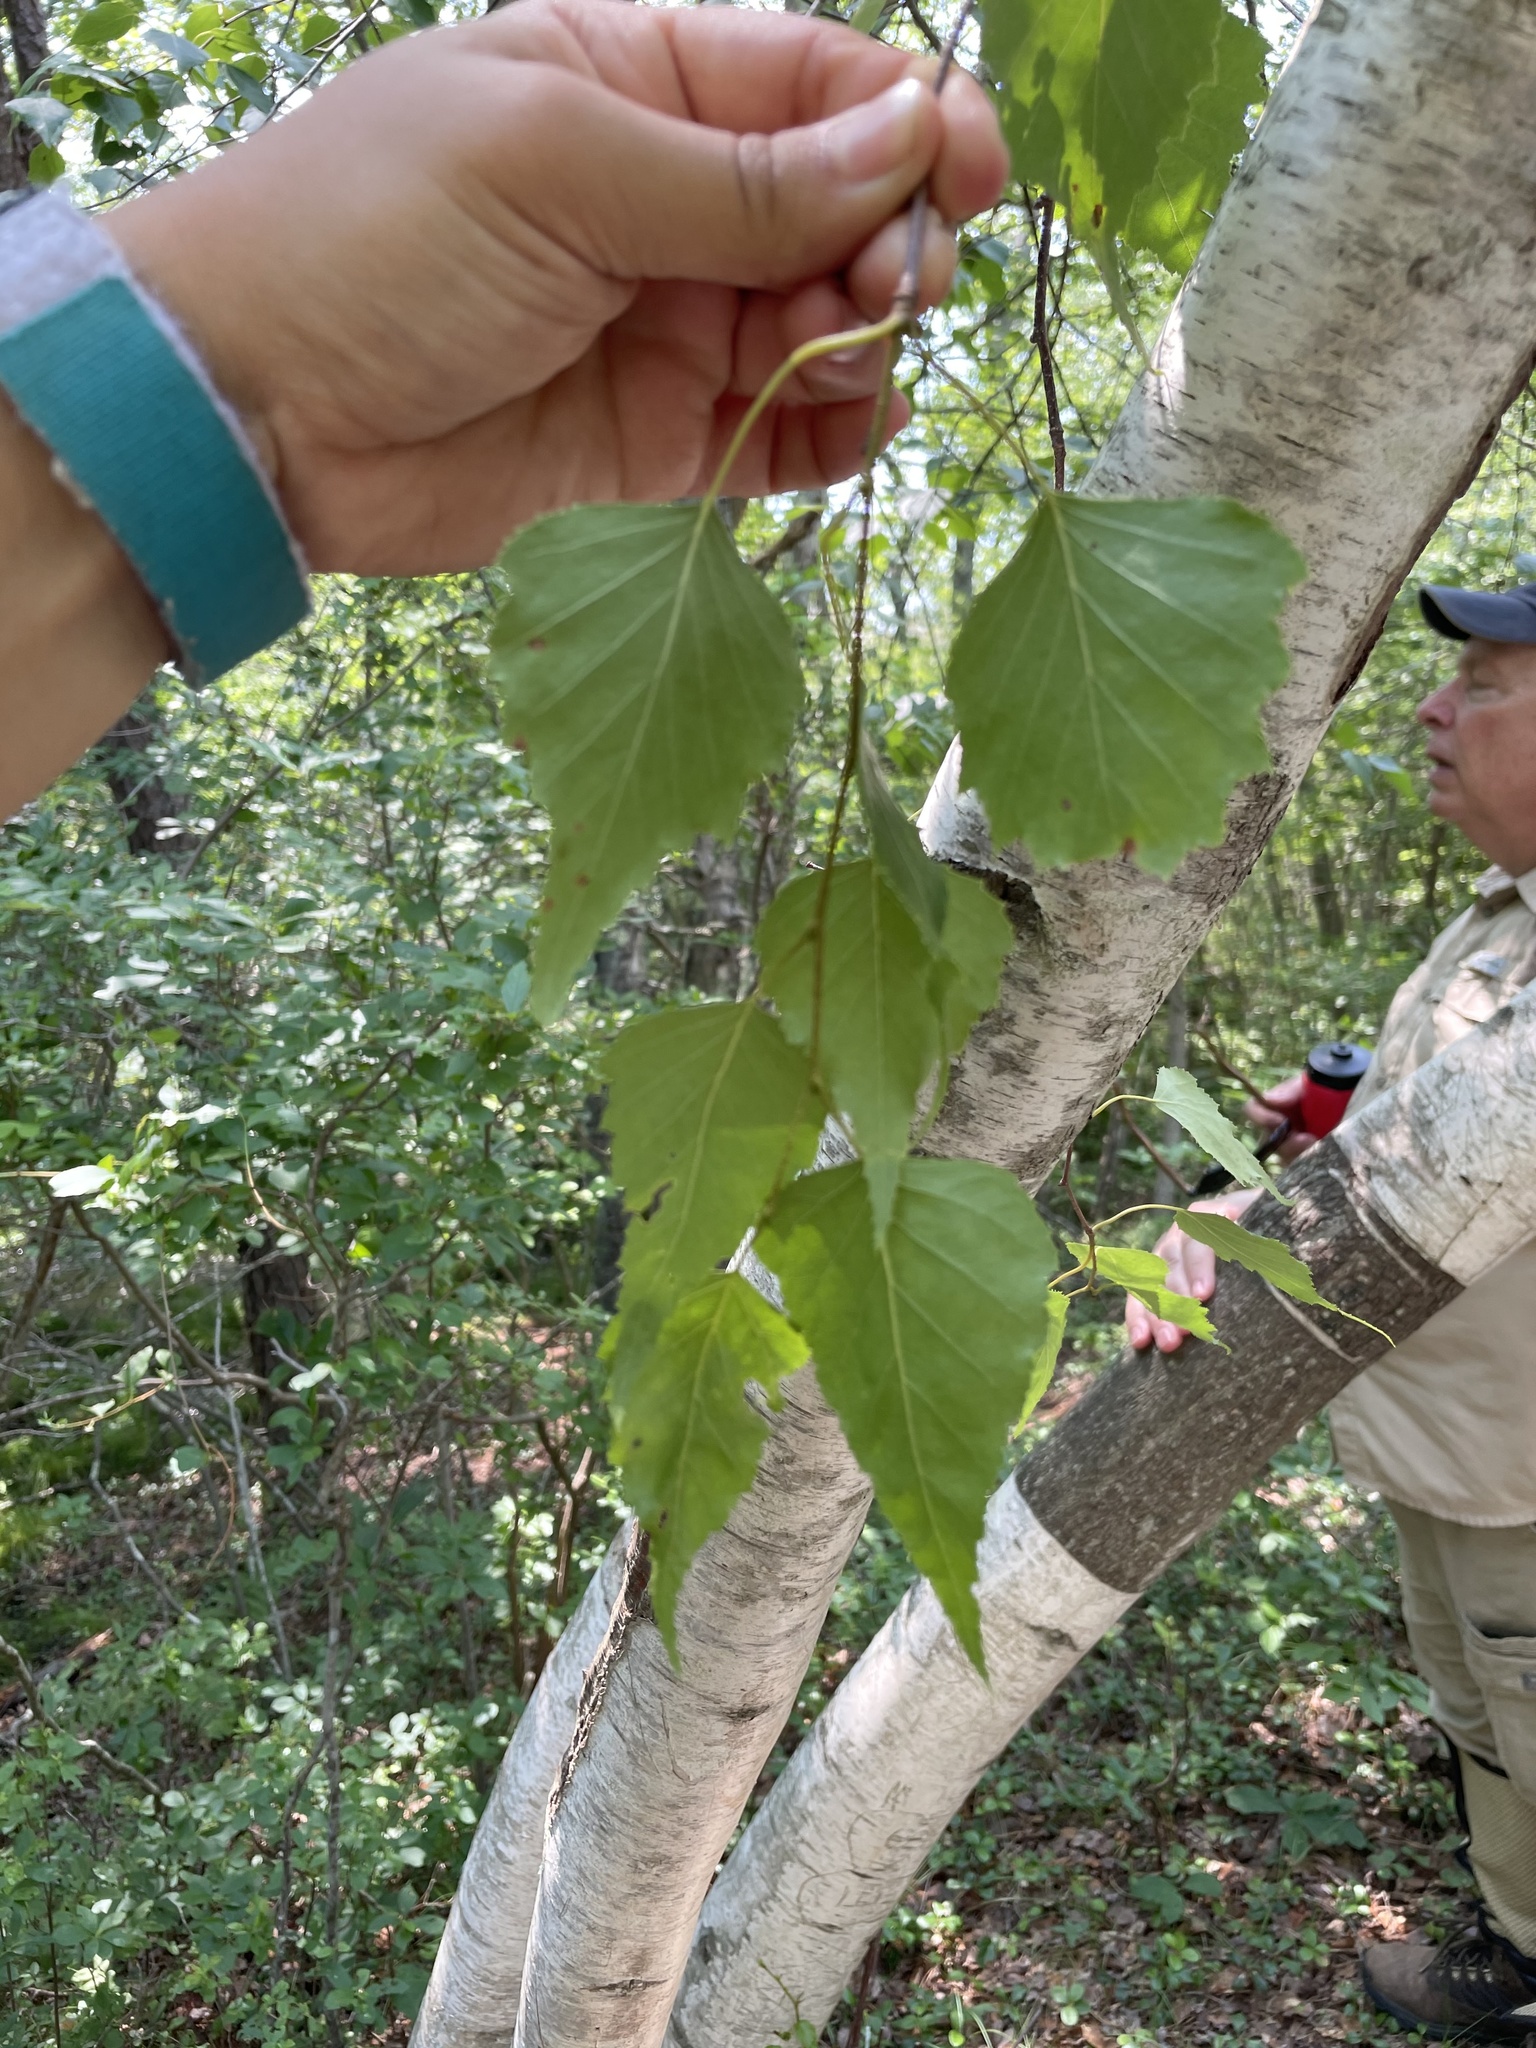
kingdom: Plantae
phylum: Tracheophyta
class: Magnoliopsida
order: Fagales
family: Betulaceae
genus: Betula
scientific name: Betula populifolia
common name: Fire birch
